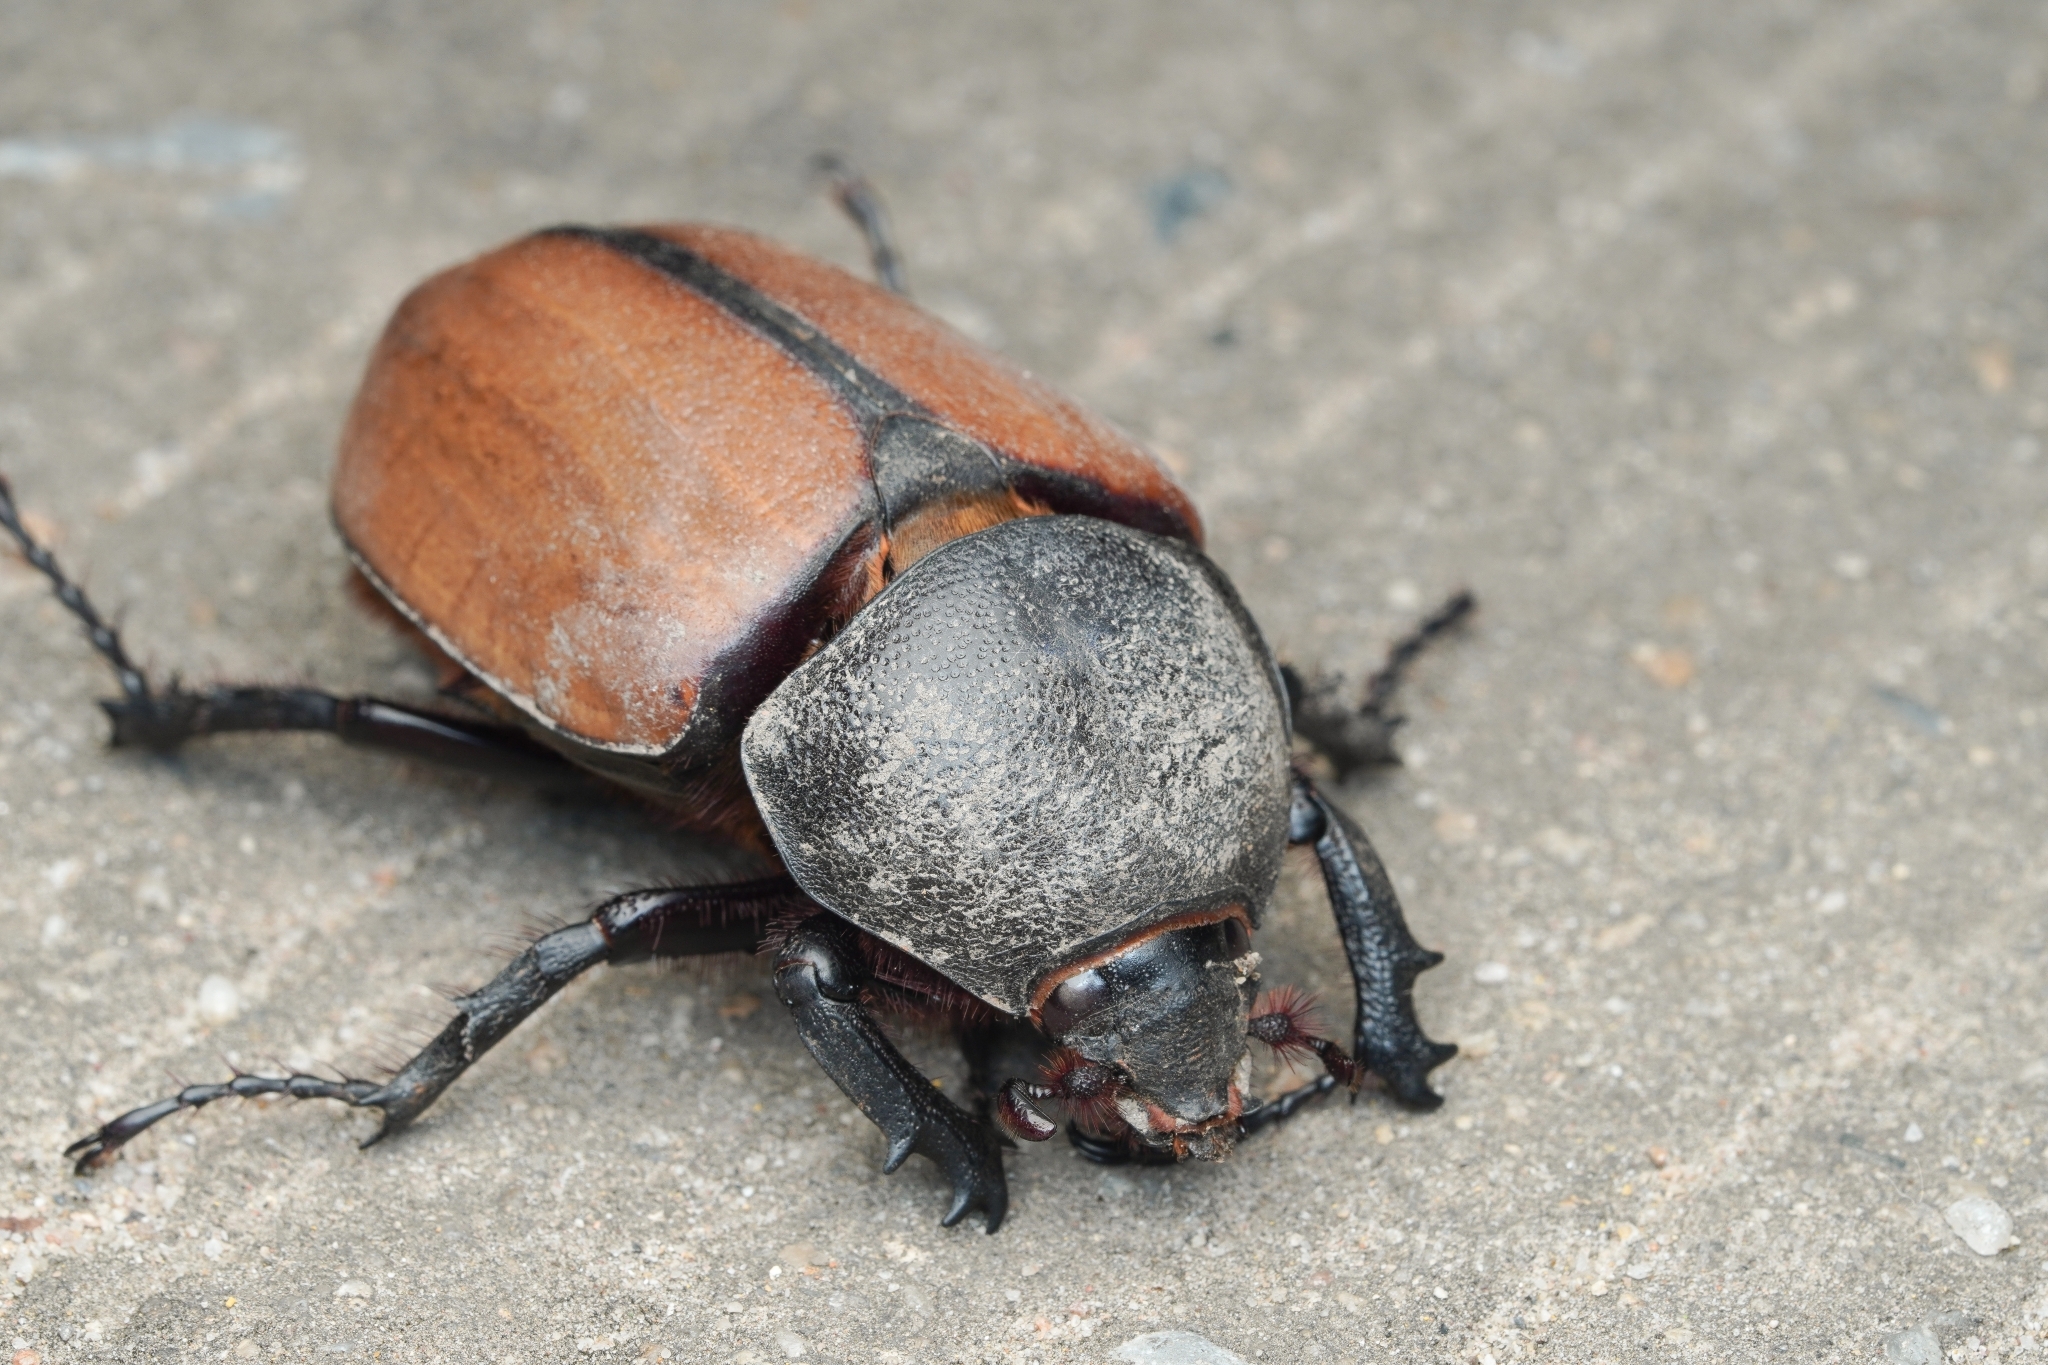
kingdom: Animalia
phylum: Arthropoda
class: Insecta
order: Coleoptera
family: Scarabaeidae
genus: Eupatorus
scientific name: Eupatorus gracilicornis
